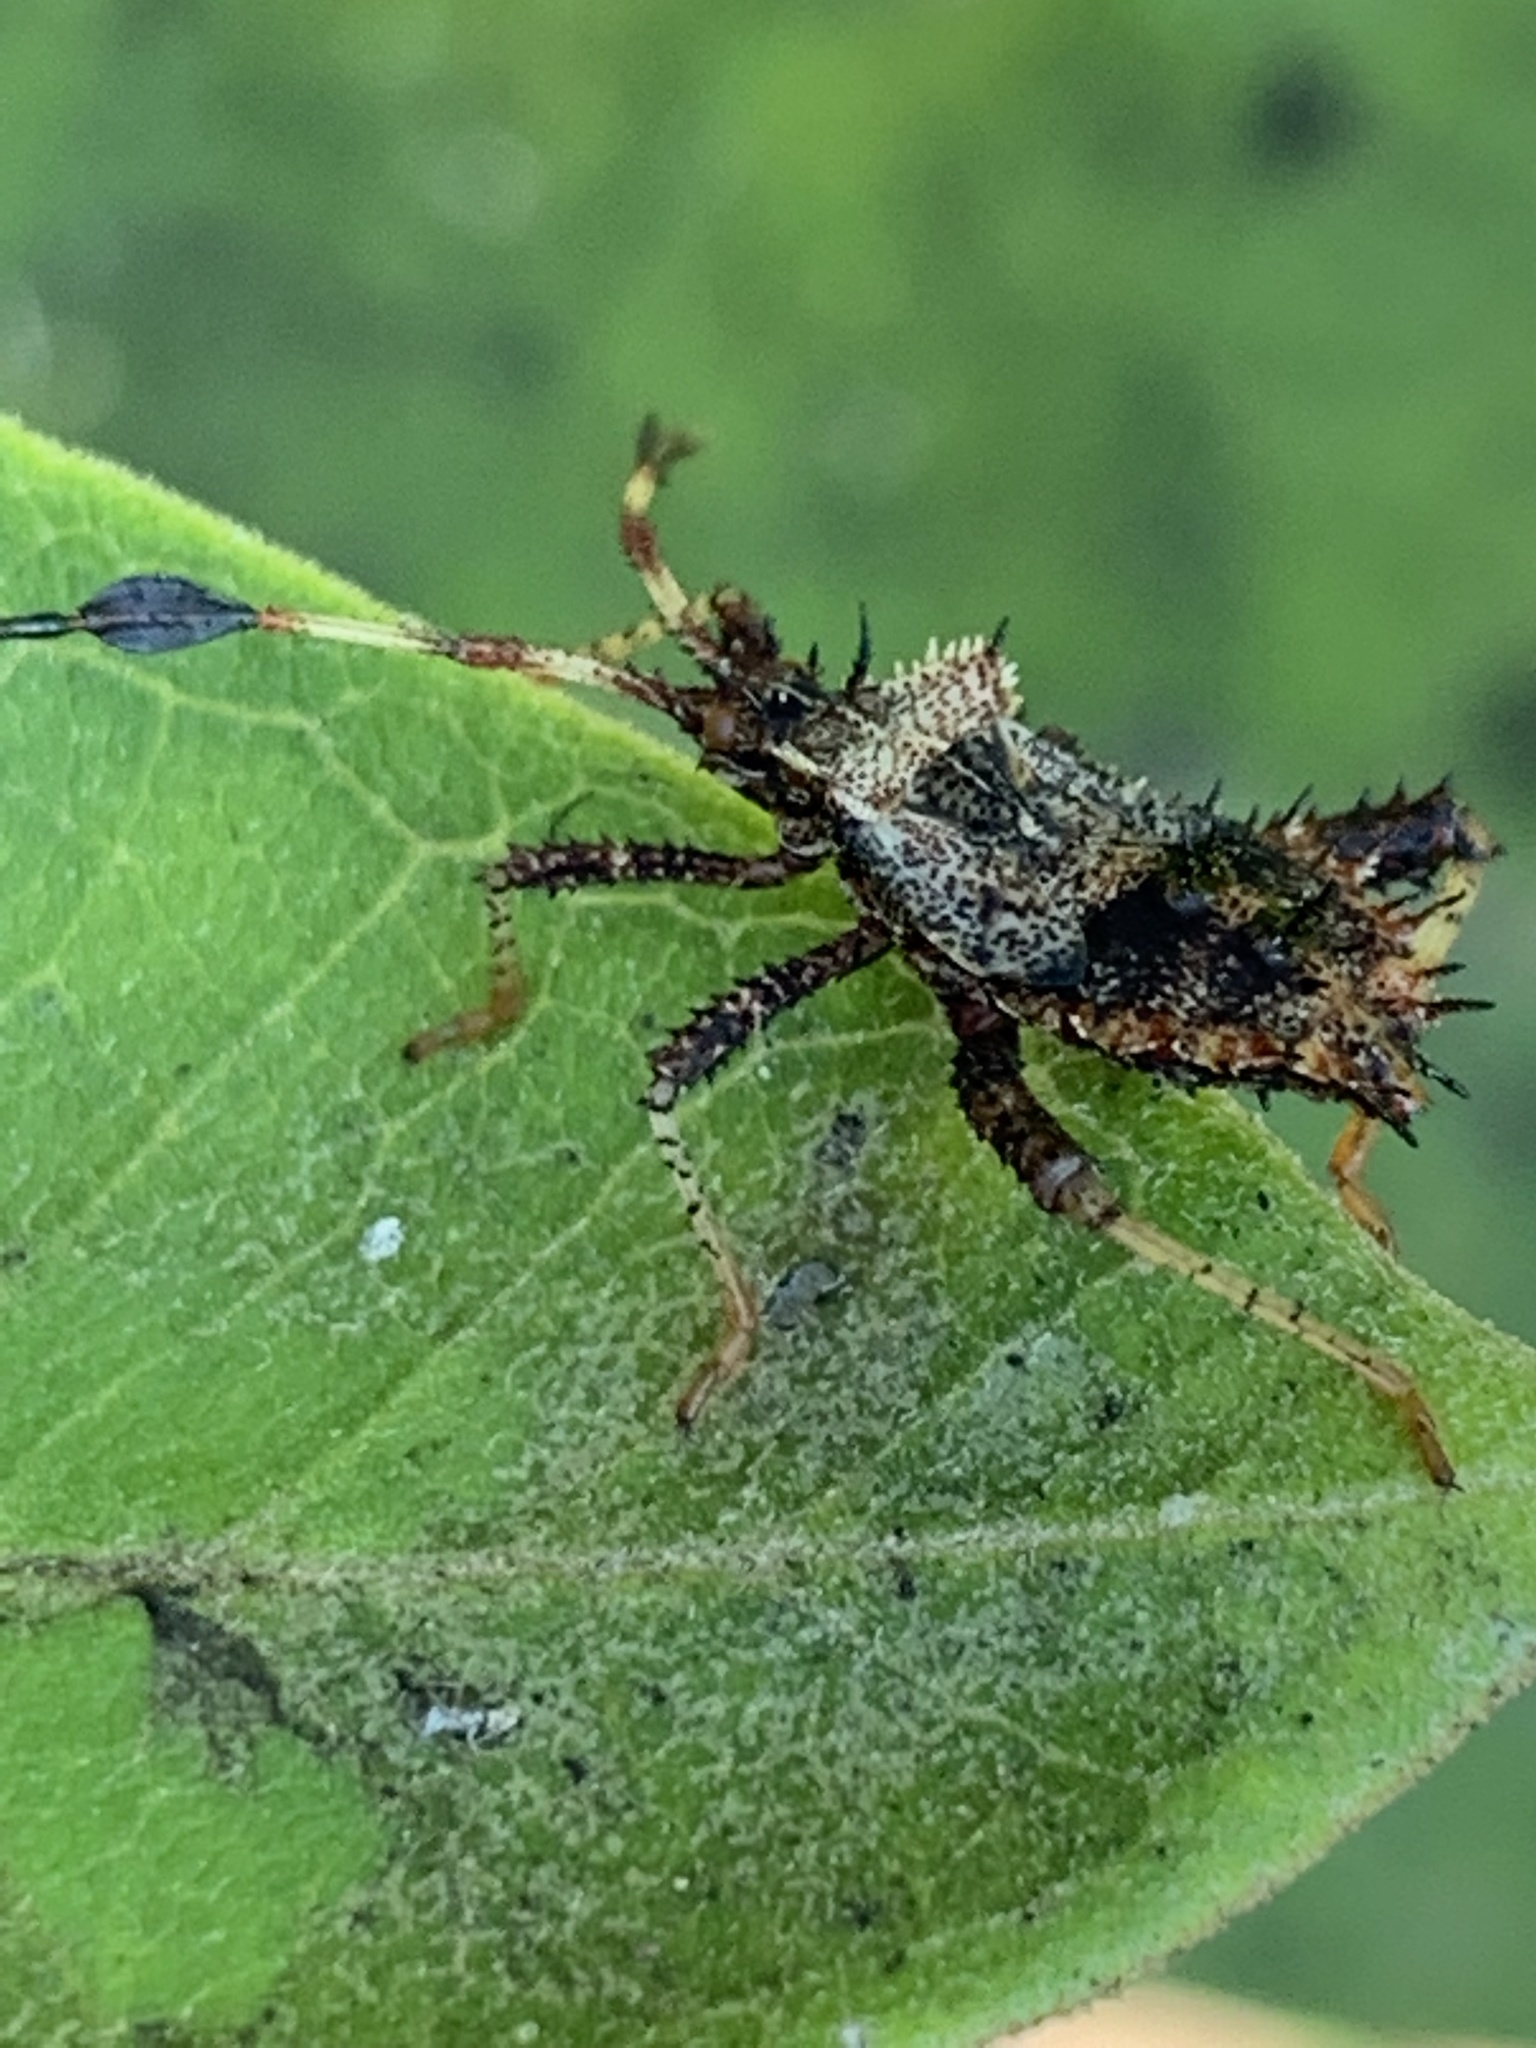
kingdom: Animalia
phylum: Arthropoda
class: Insecta
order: Hemiptera
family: Coreidae
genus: Euthochtha
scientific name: Euthochtha galeator
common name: Helmeted squash bug
